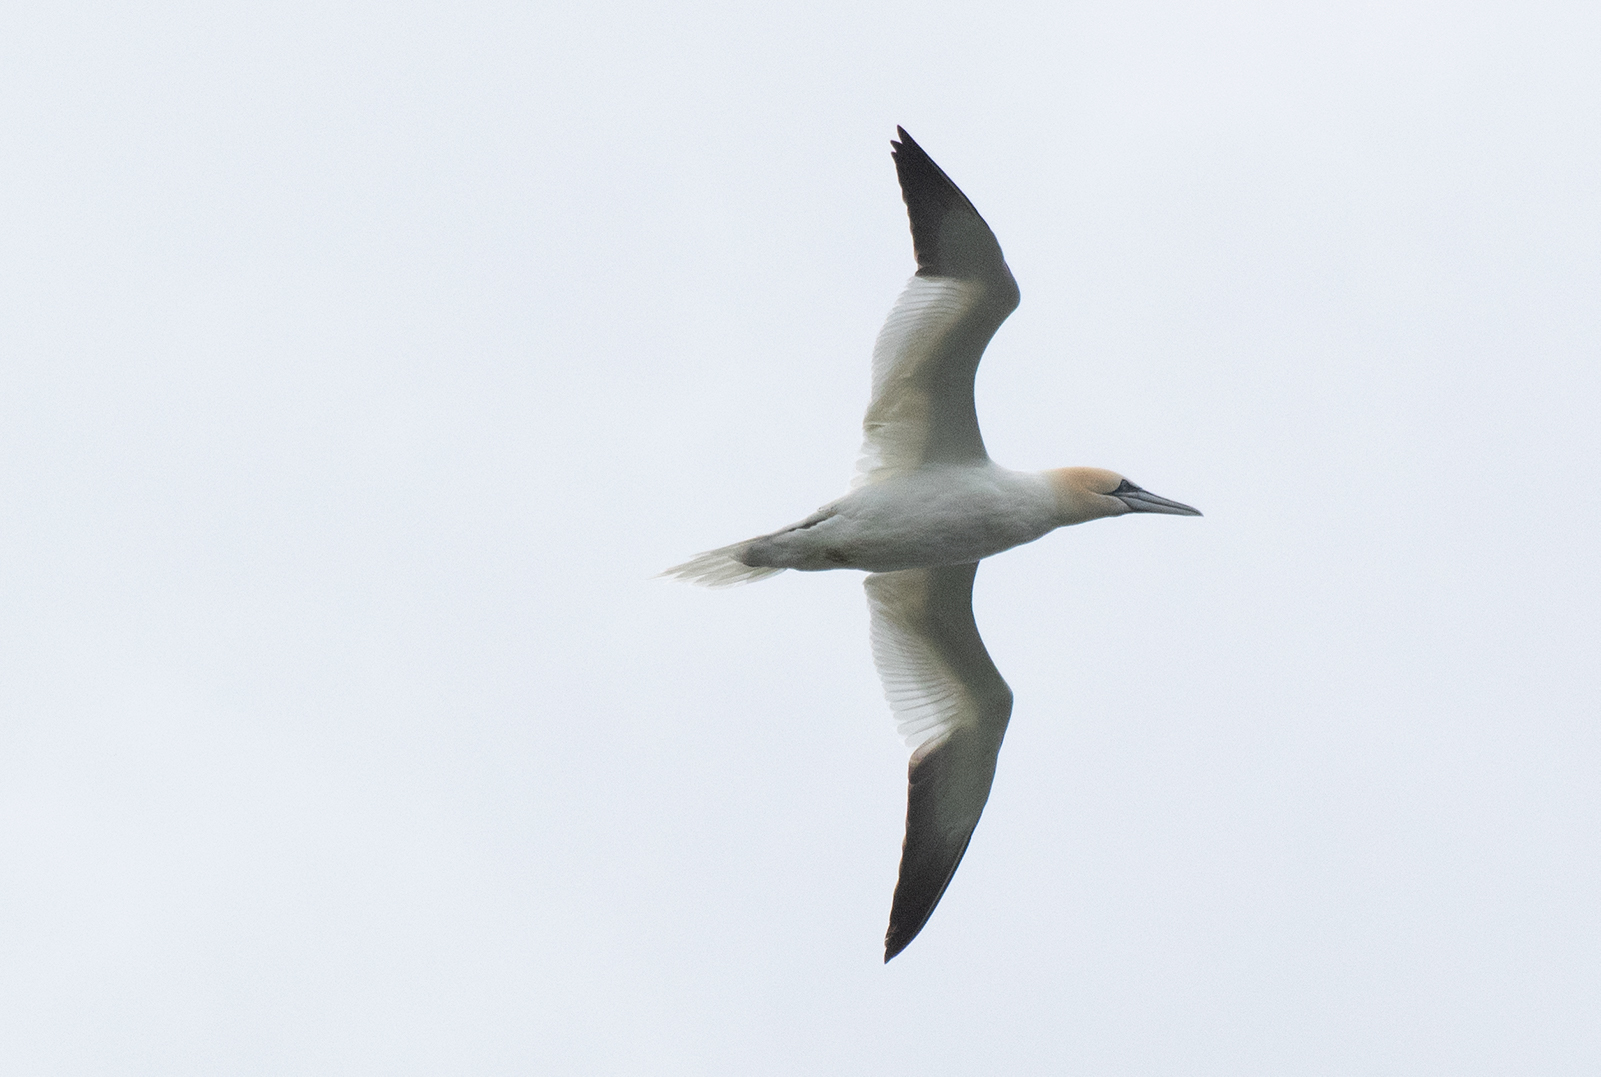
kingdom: Animalia
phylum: Chordata
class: Aves
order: Suliformes
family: Sulidae
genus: Morus
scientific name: Morus bassanus
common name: Northern gannet
